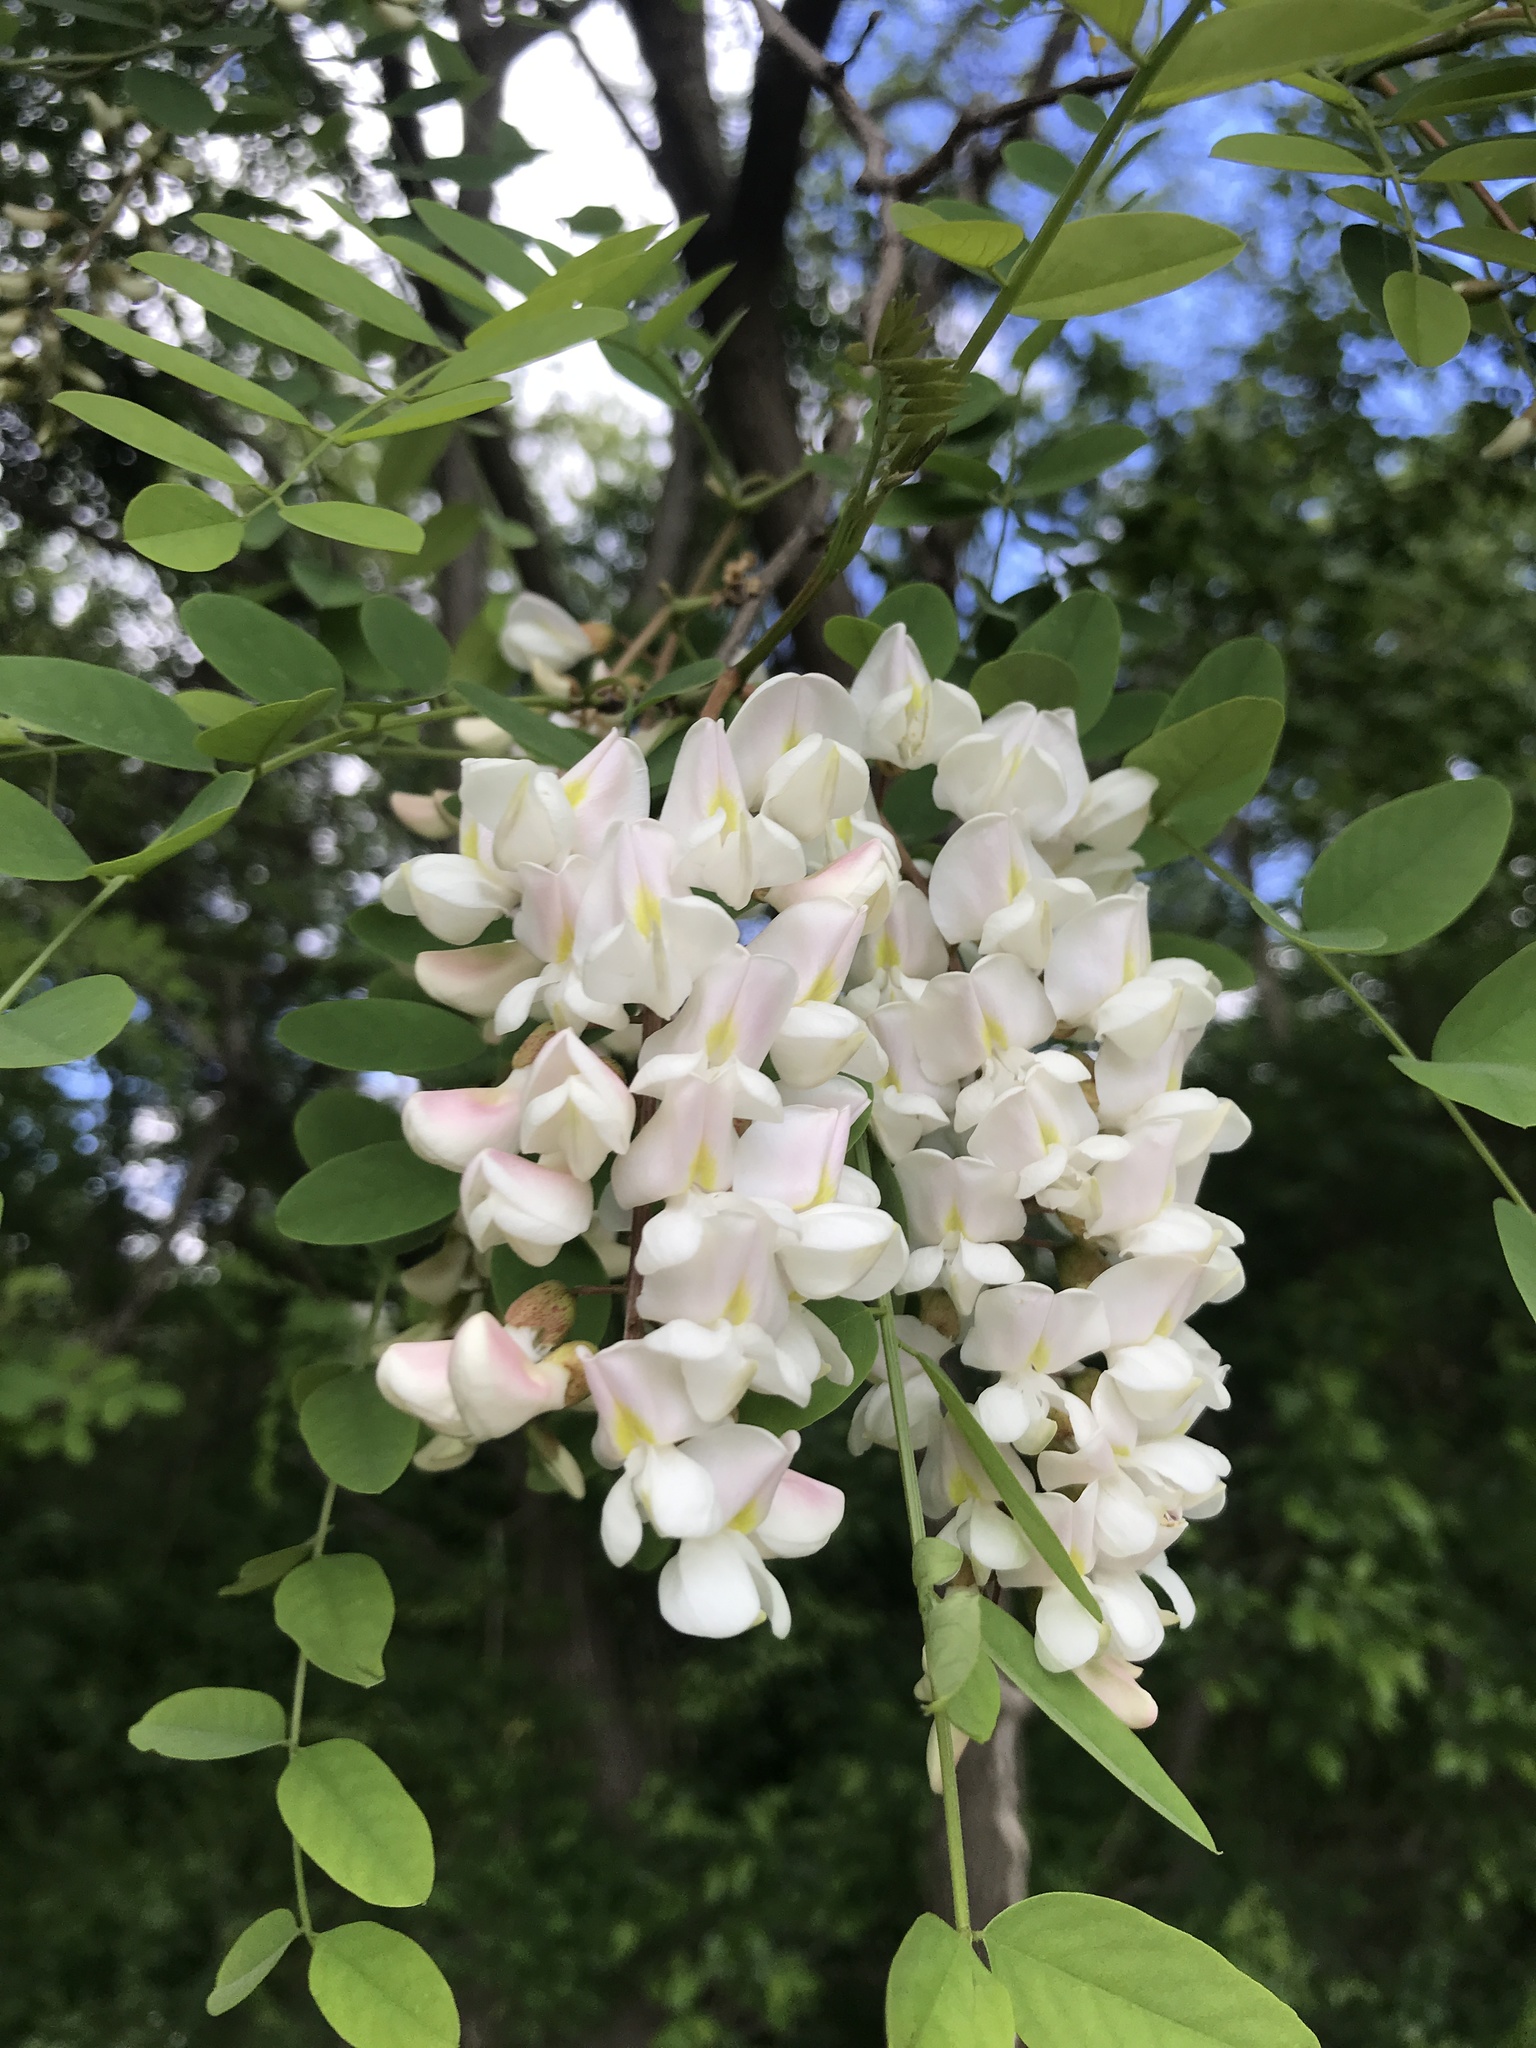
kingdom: Plantae
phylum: Tracheophyta
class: Magnoliopsida
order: Fabales
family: Fabaceae
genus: Robinia
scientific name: Robinia pseudoacacia
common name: Black locust
